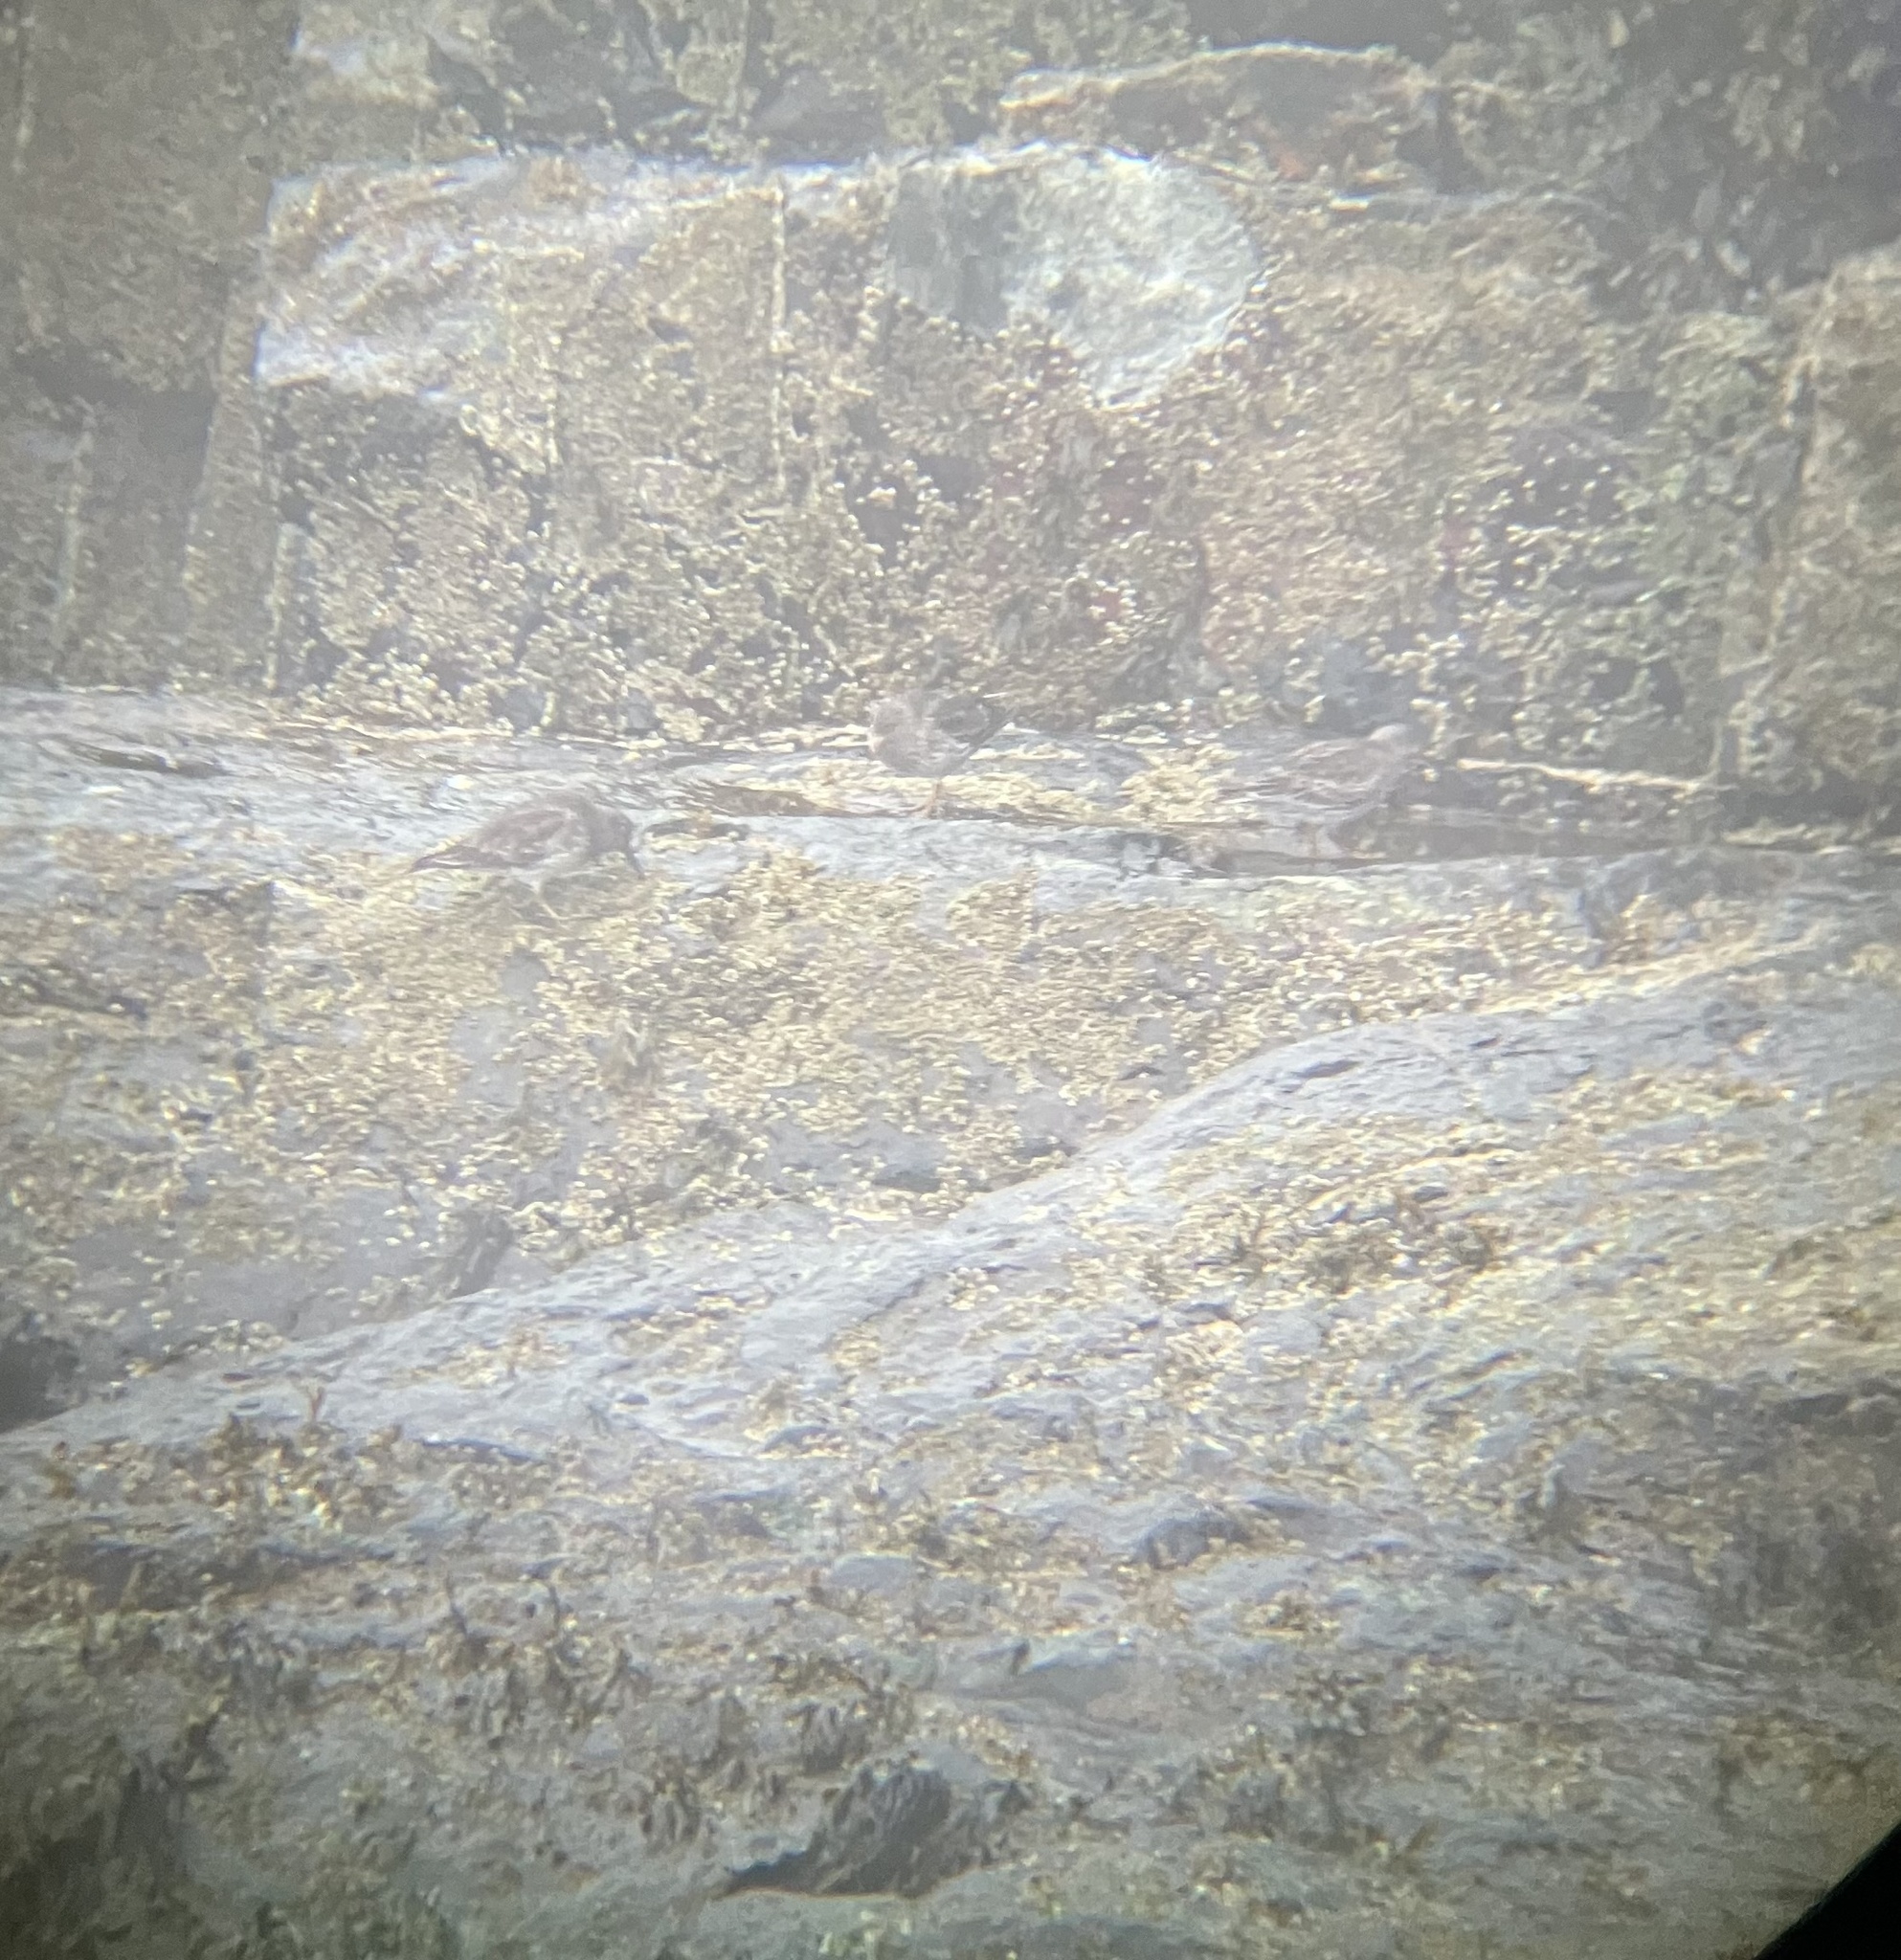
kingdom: Animalia
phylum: Chordata
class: Aves
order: Charadriiformes
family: Scolopacidae
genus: Calidris
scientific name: Calidris maritima
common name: Purple sandpiper
